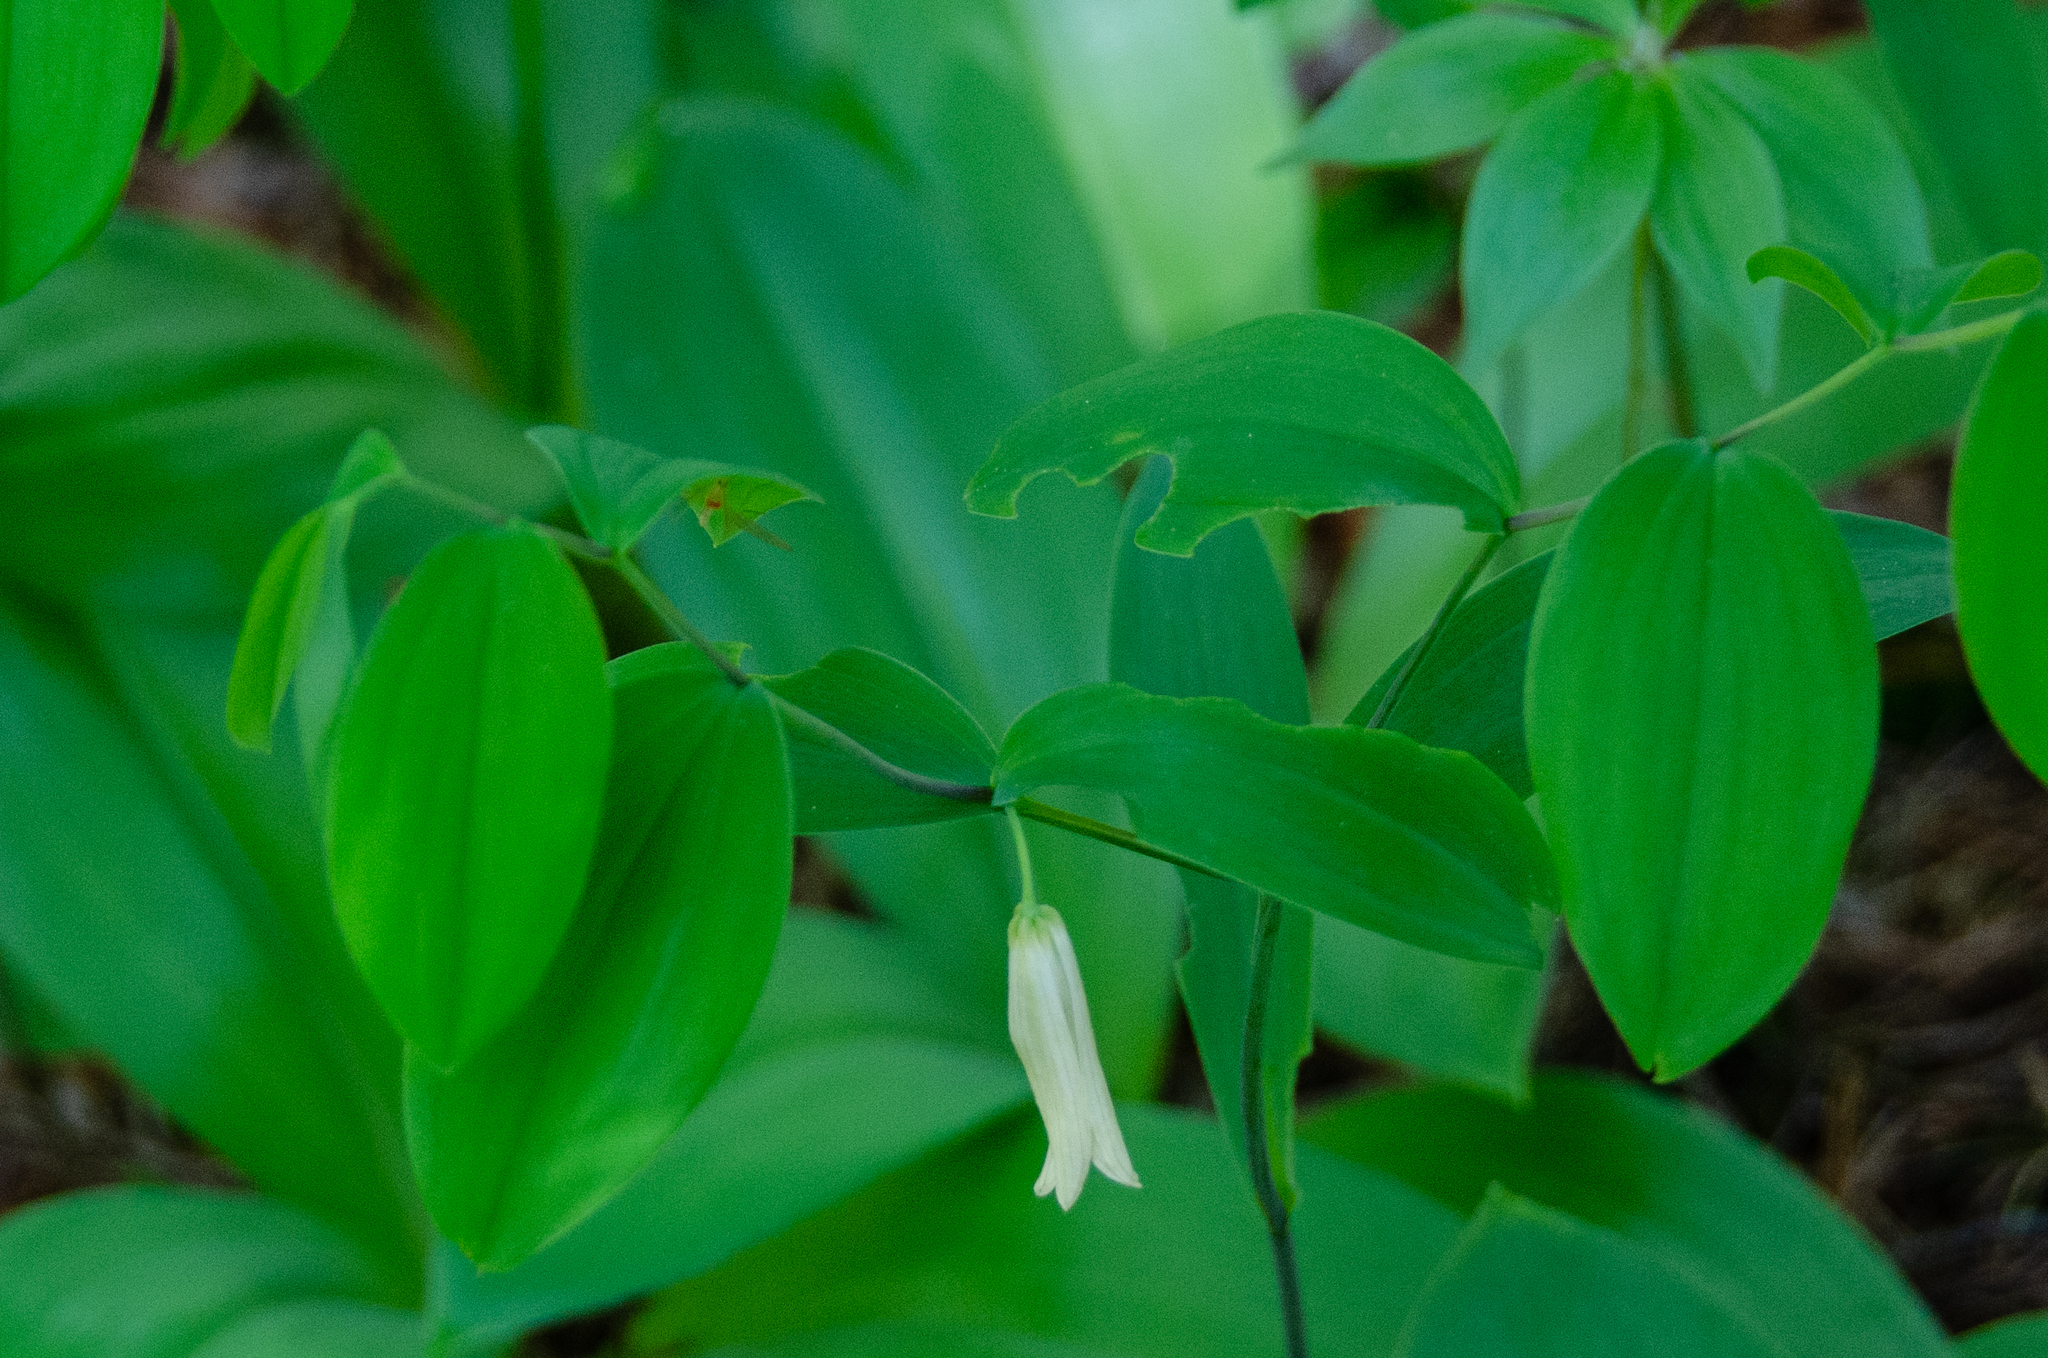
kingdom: Plantae
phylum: Tracheophyta
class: Liliopsida
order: Liliales
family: Colchicaceae
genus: Uvularia
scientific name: Uvularia sessilifolia
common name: Straw-lily
